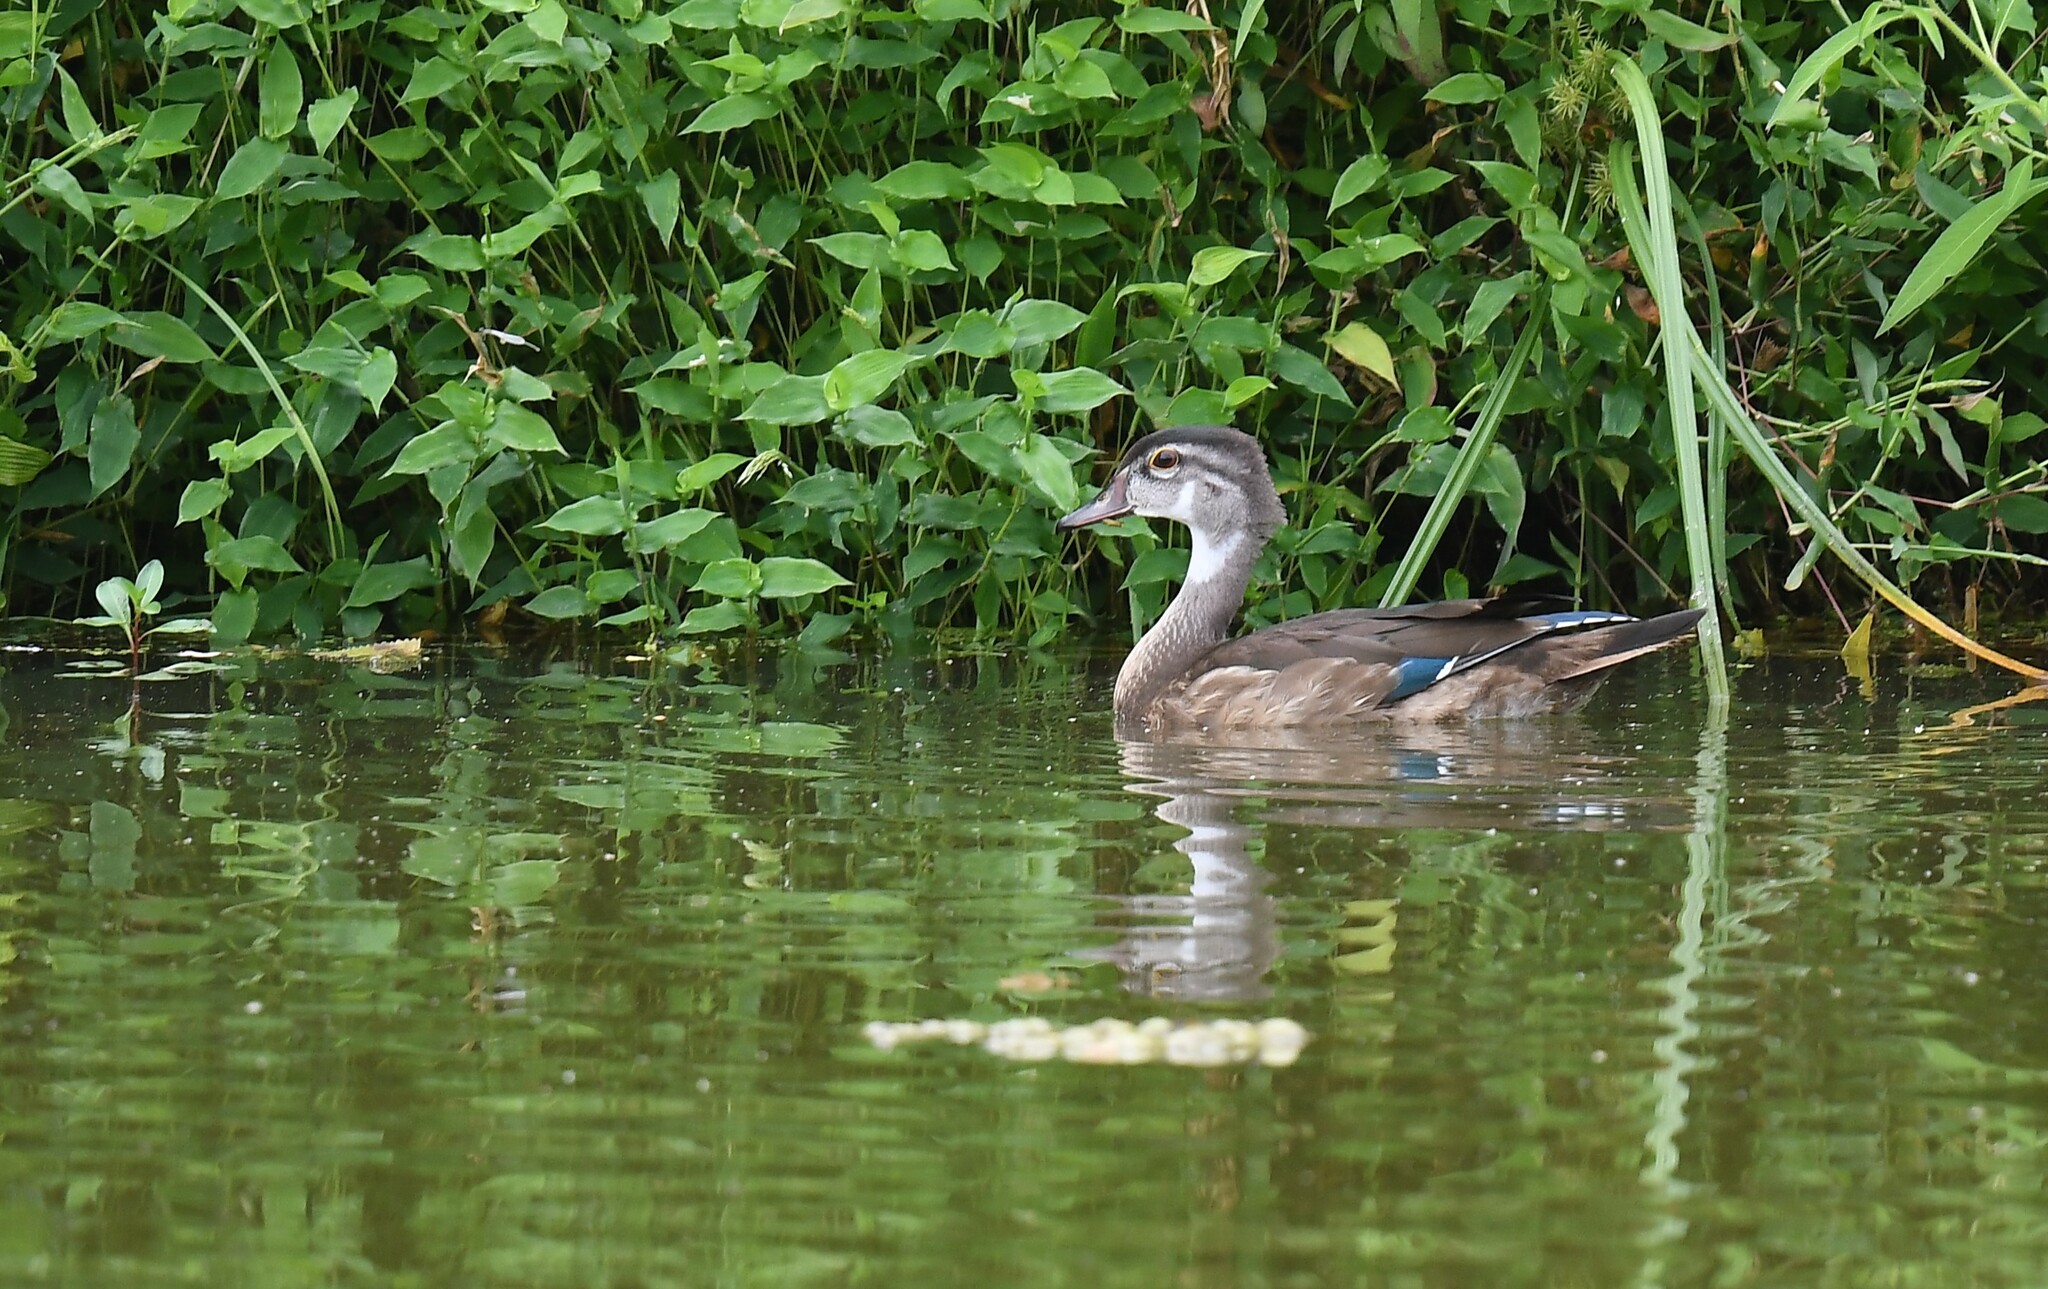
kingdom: Animalia
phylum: Chordata
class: Aves
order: Anseriformes
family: Anatidae
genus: Aix
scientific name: Aix sponsa
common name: Wood duck
